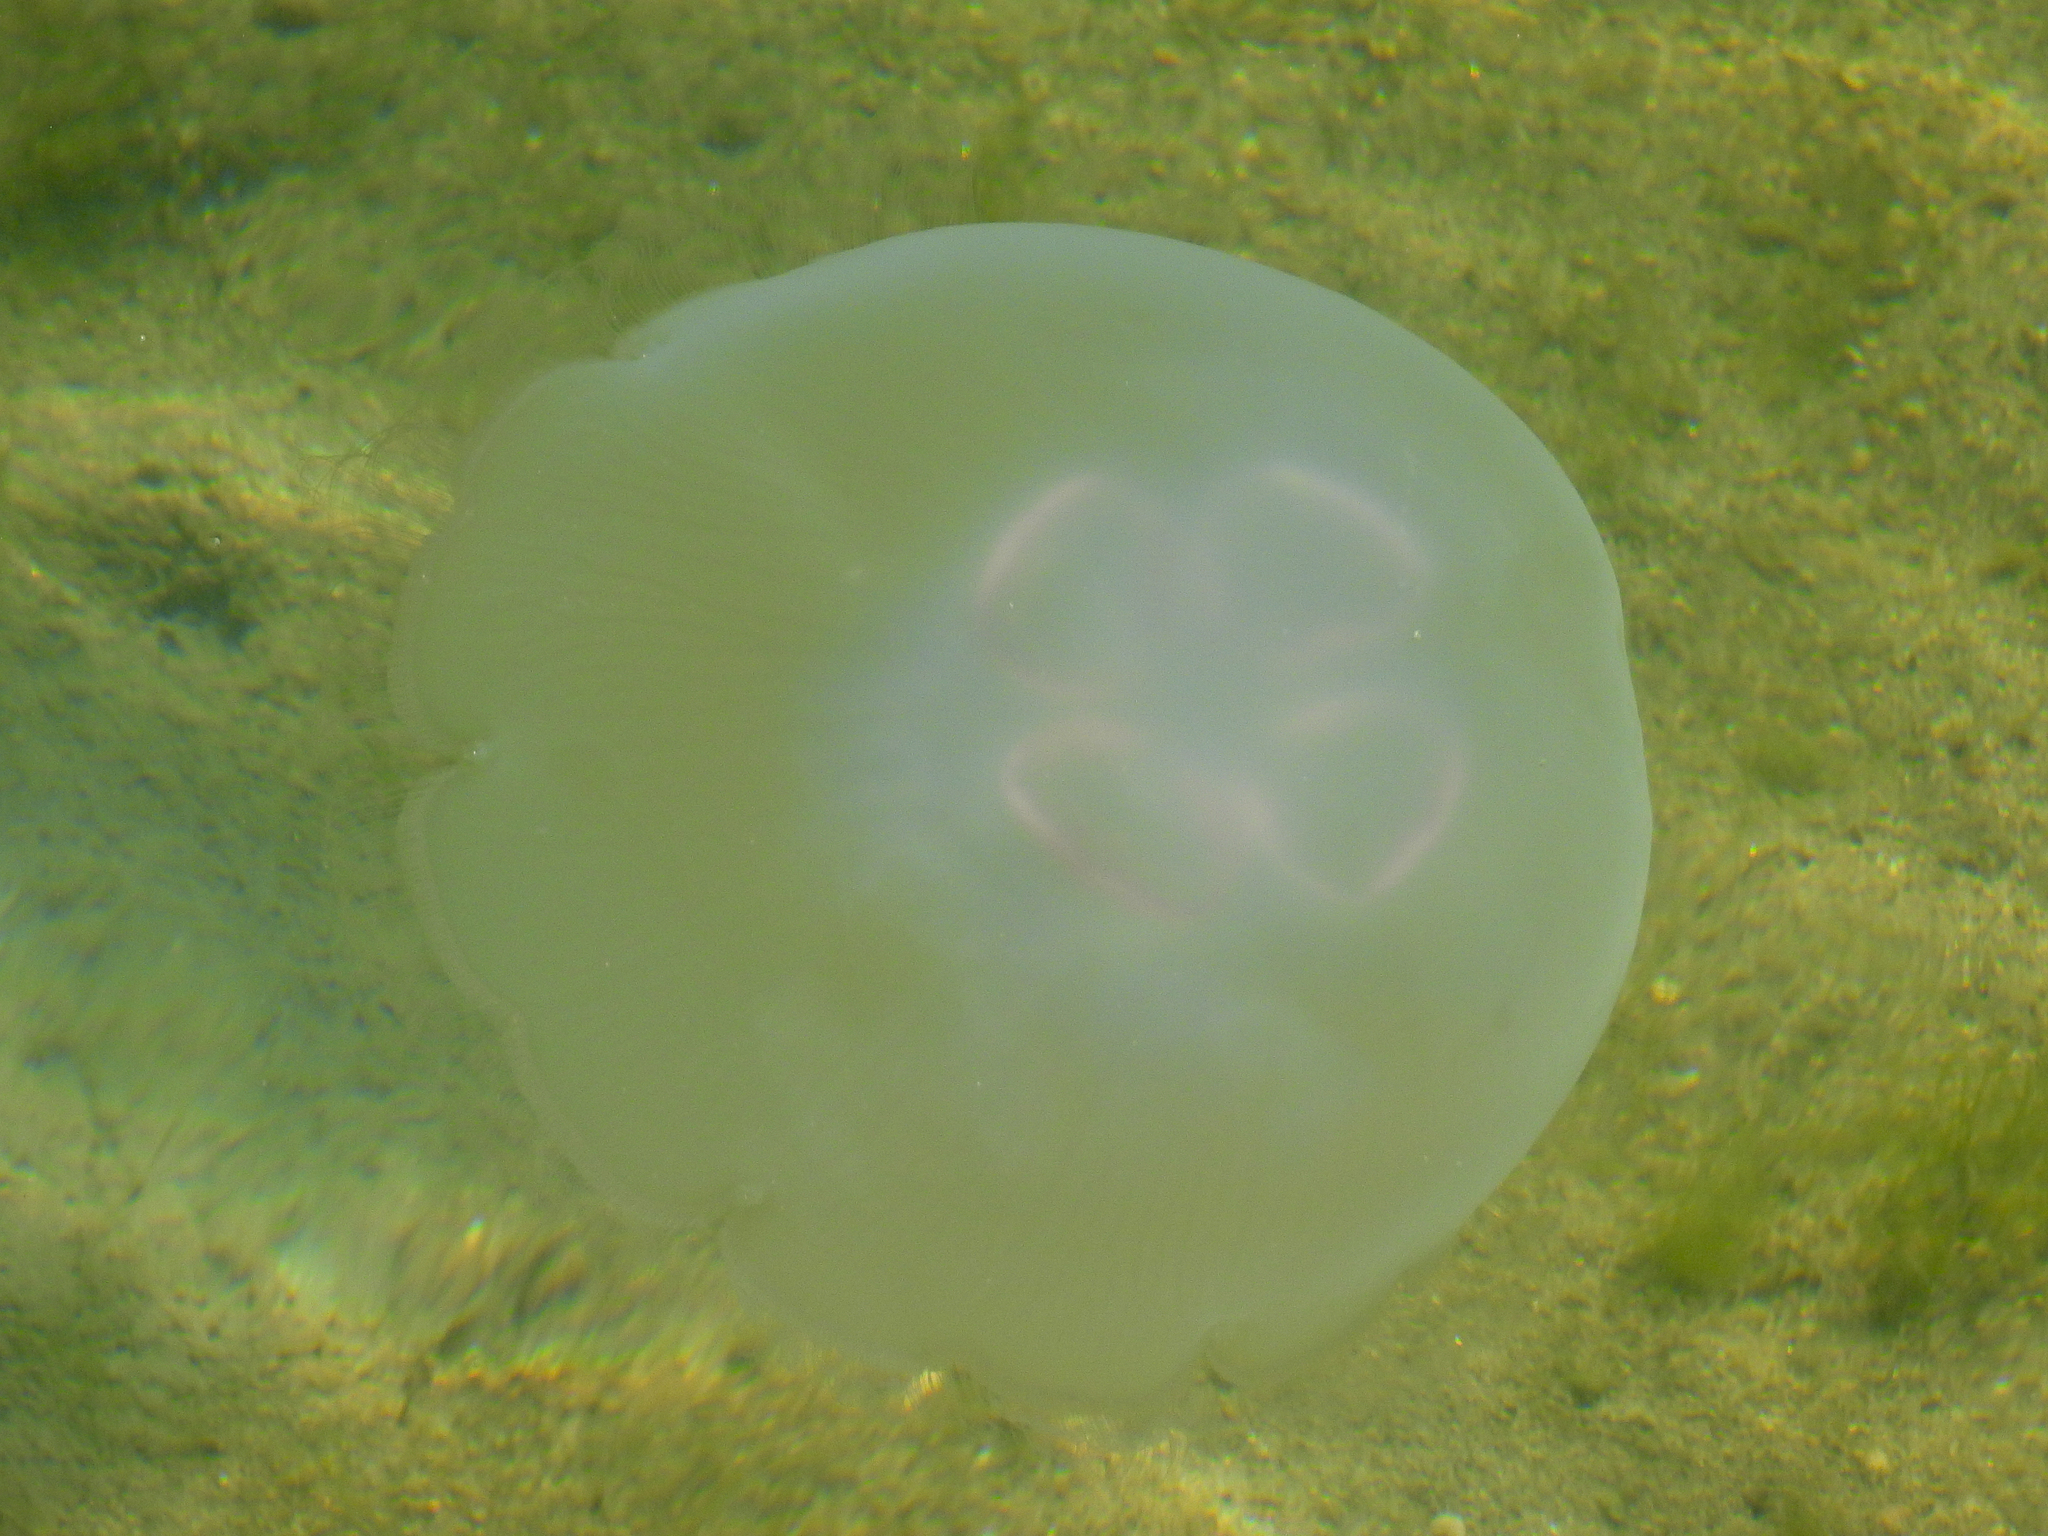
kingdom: Animalia
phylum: Cnidaria
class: Scyphozoa
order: Semaeostomeae
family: Ulmaridae
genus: Aurelia
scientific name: Aurelia labiata
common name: Pacific moon jelly
